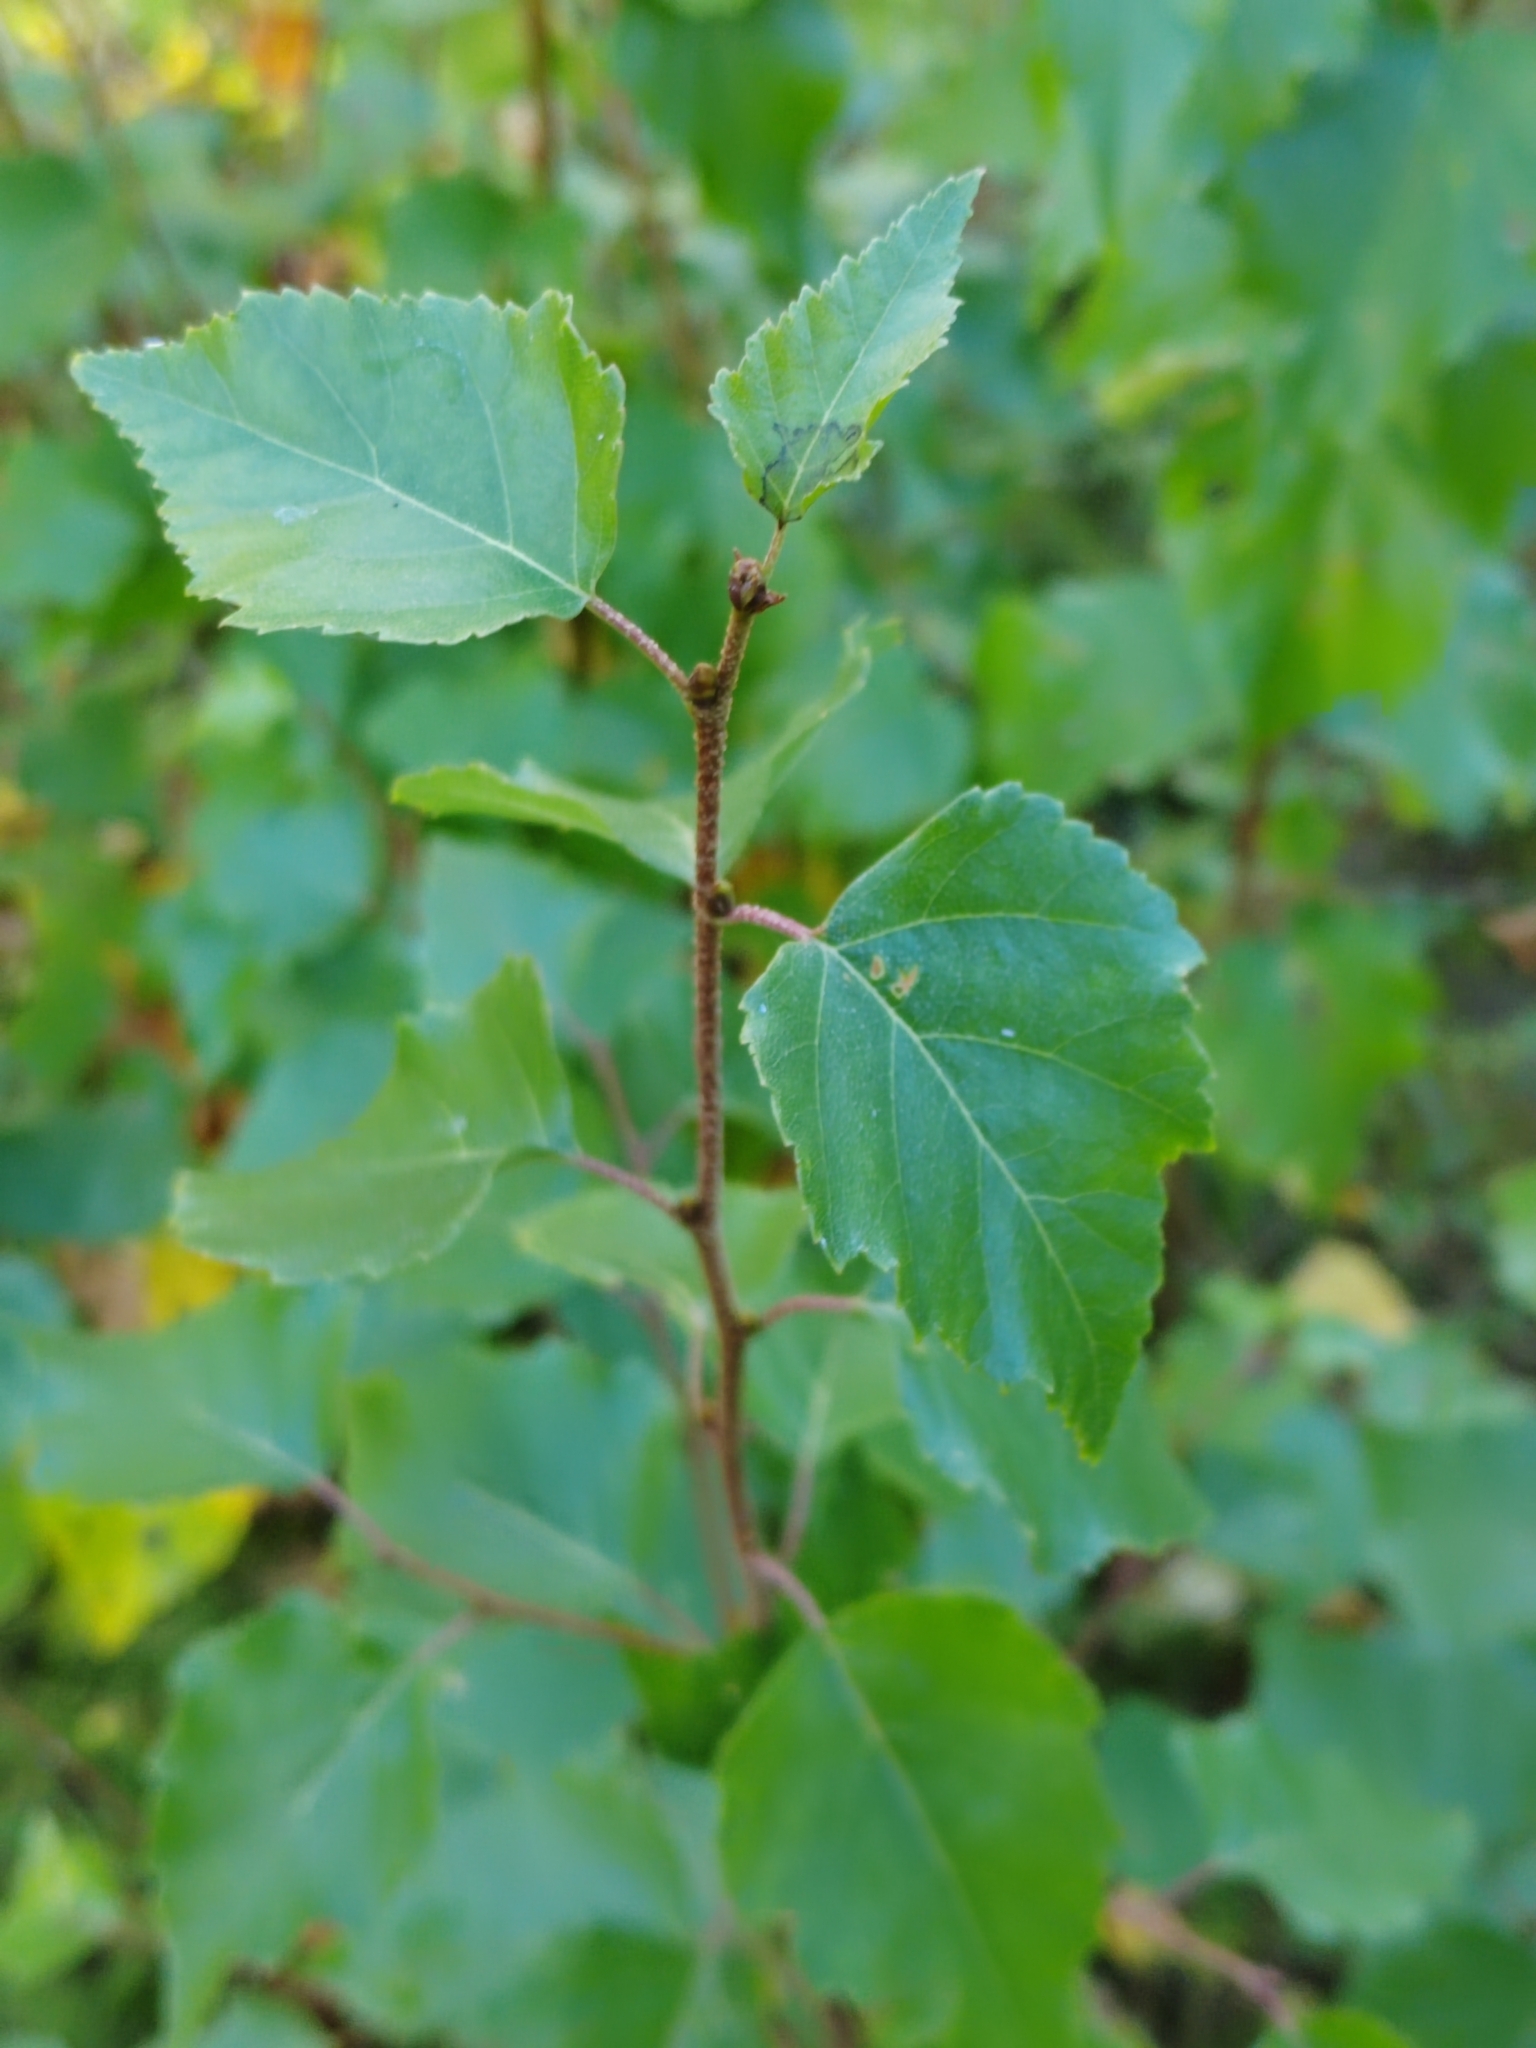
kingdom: Plantae
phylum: Tracheophyta
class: Magnoliopsida
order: Fagales
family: Betulaceae
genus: Betula
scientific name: Betula pendula
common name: Silver birch
